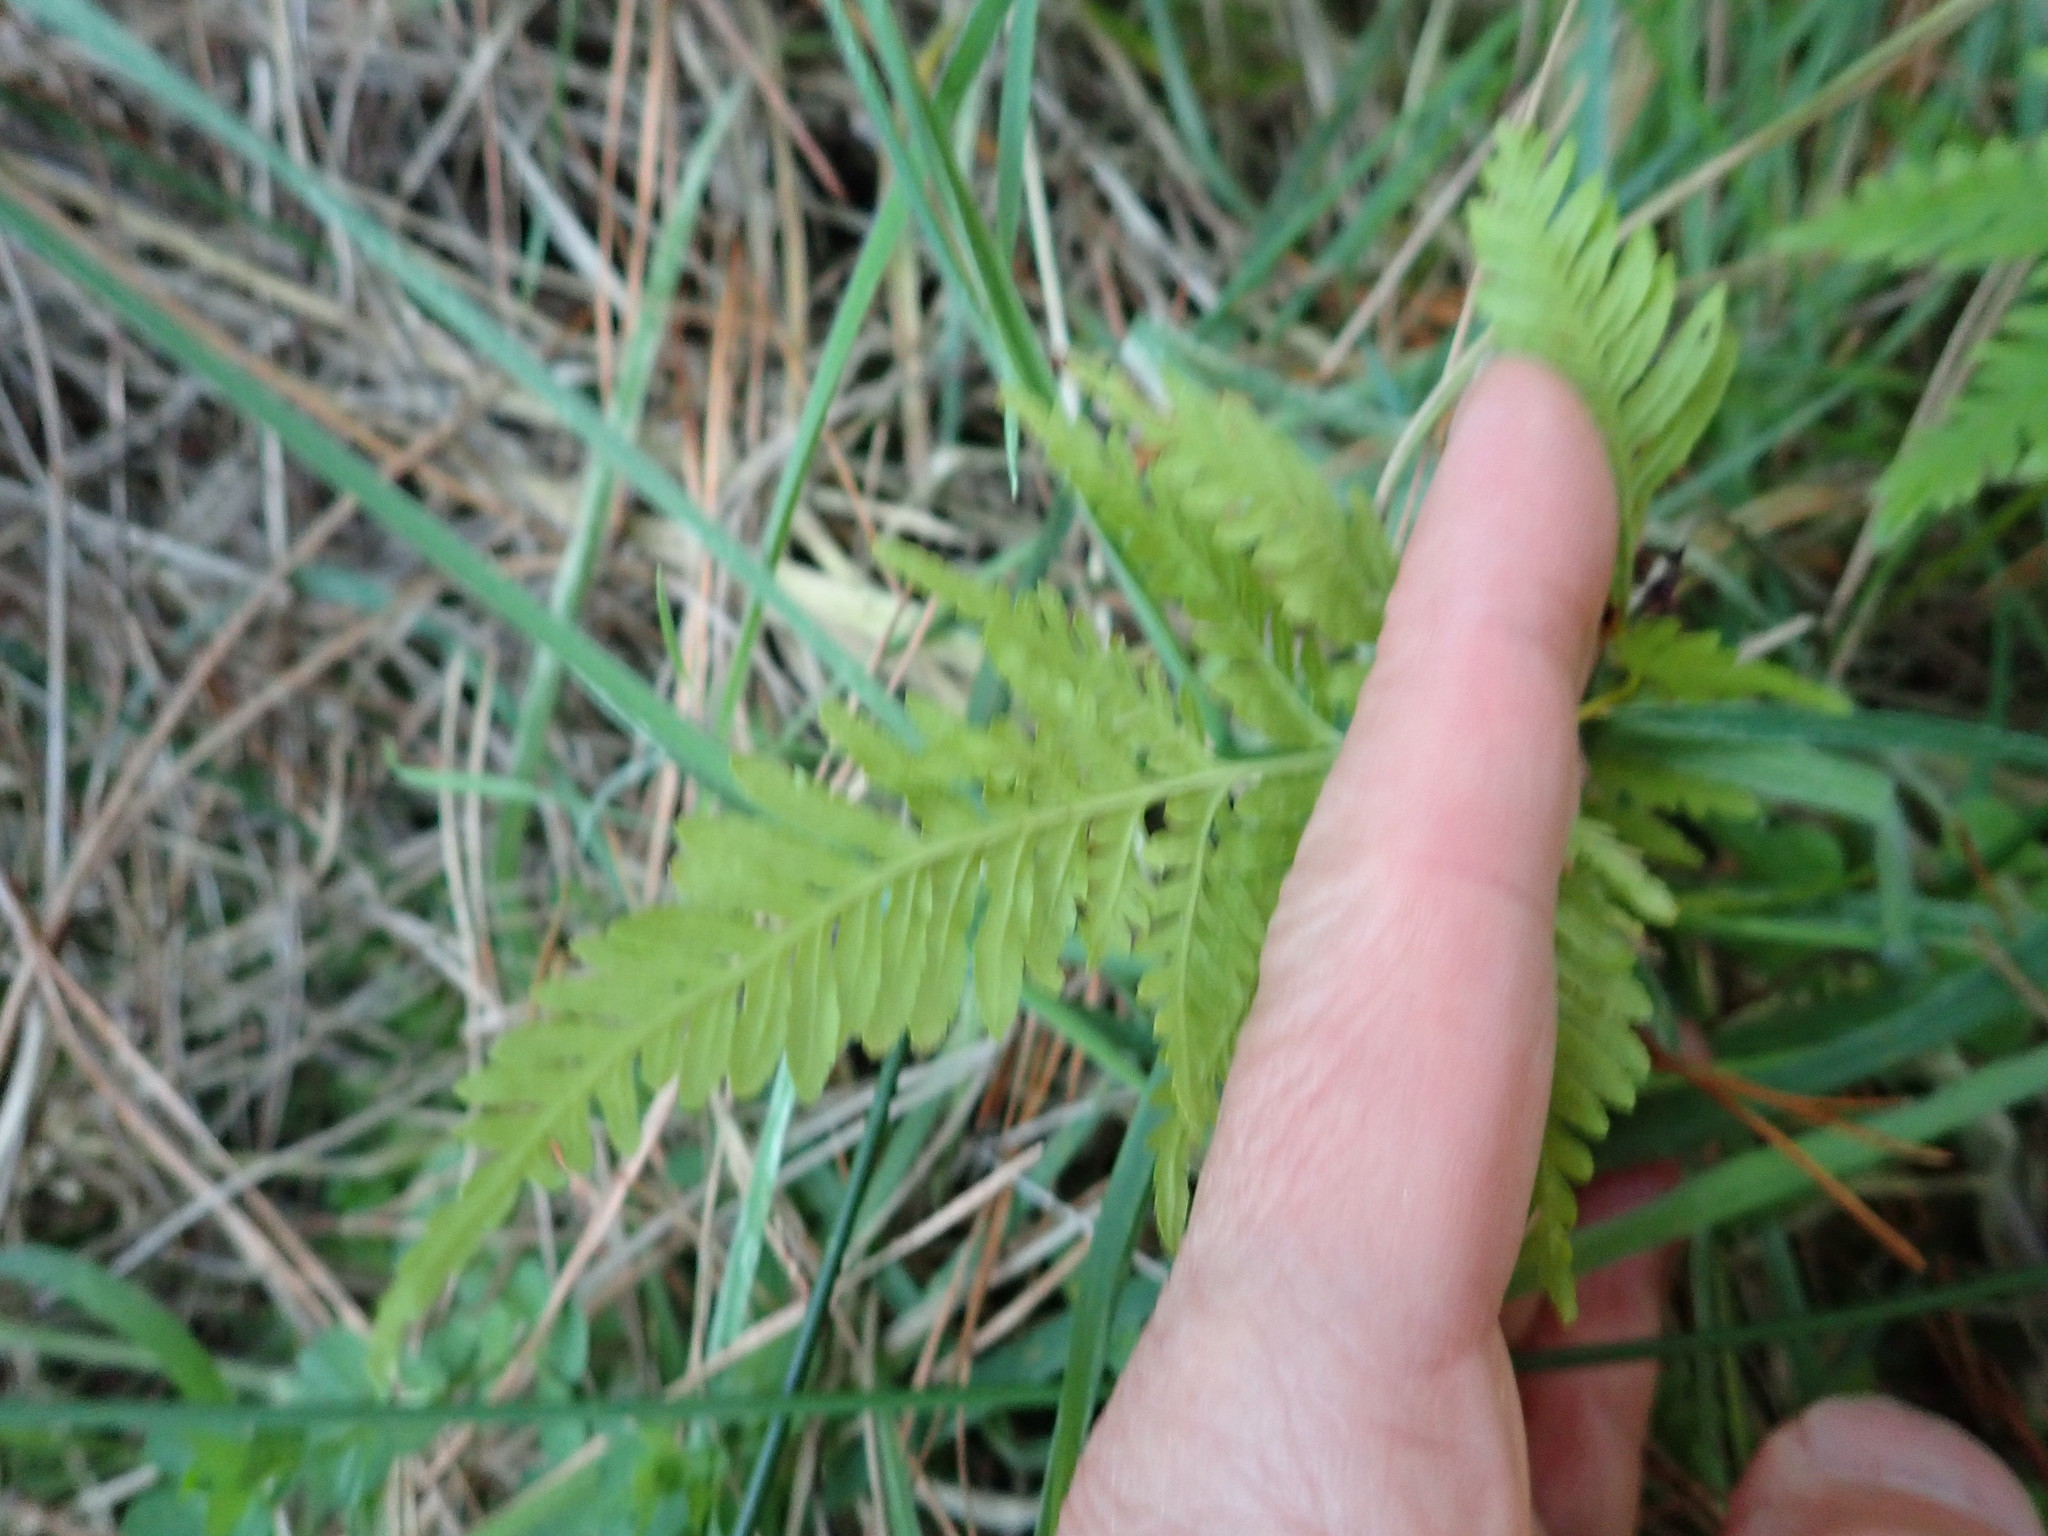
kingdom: Plantae
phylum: Tracheophyta
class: Polypodiopsida
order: Polypodiales
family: Pteridaceae
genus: Pteris
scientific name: Pteris tremula
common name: Australian brake
